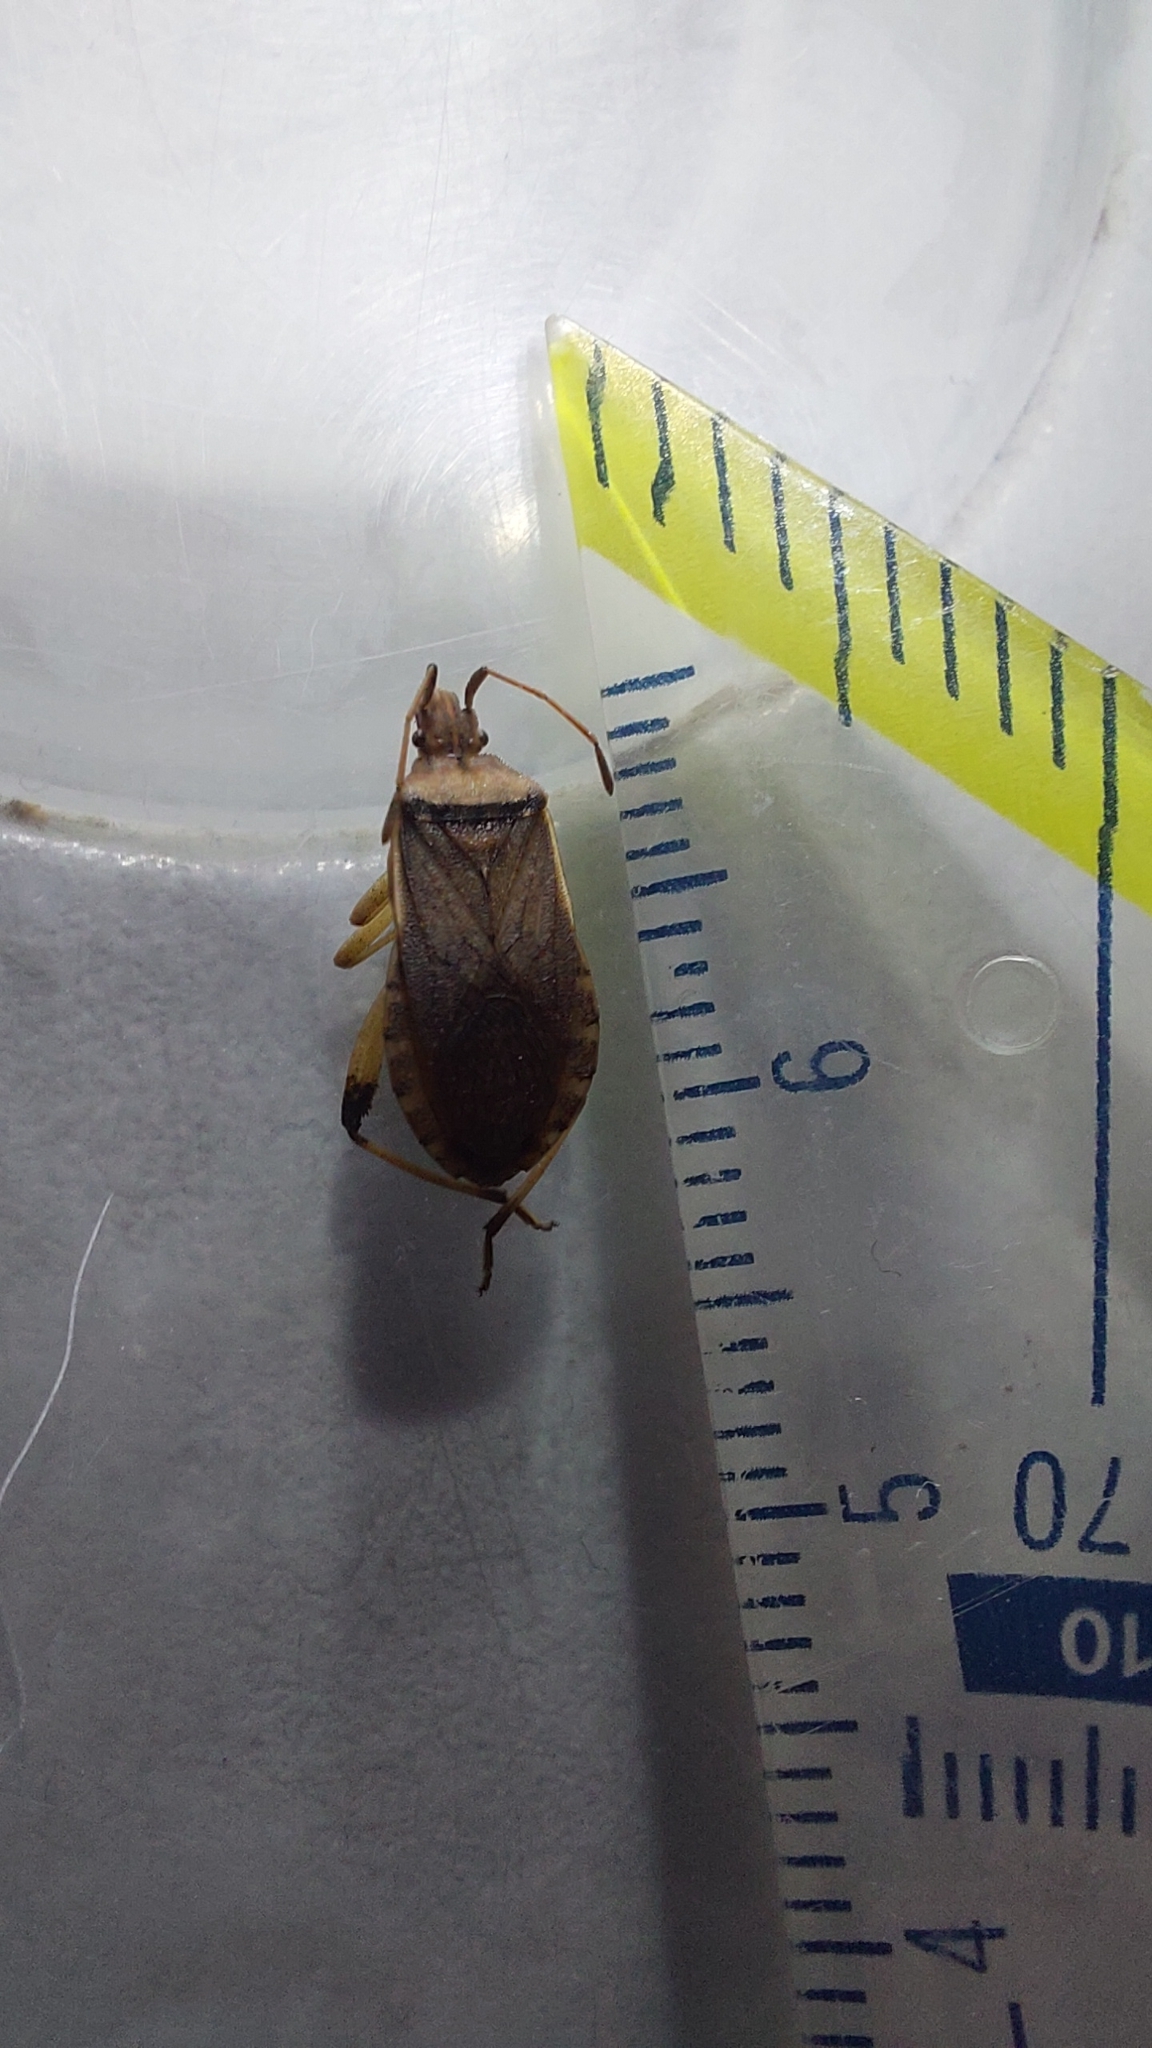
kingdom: Animalia
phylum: Arthropoda
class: Insecta
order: Hemiptera
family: Coreidae
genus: Ceraleptus
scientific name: Ceraleptus obtusus
